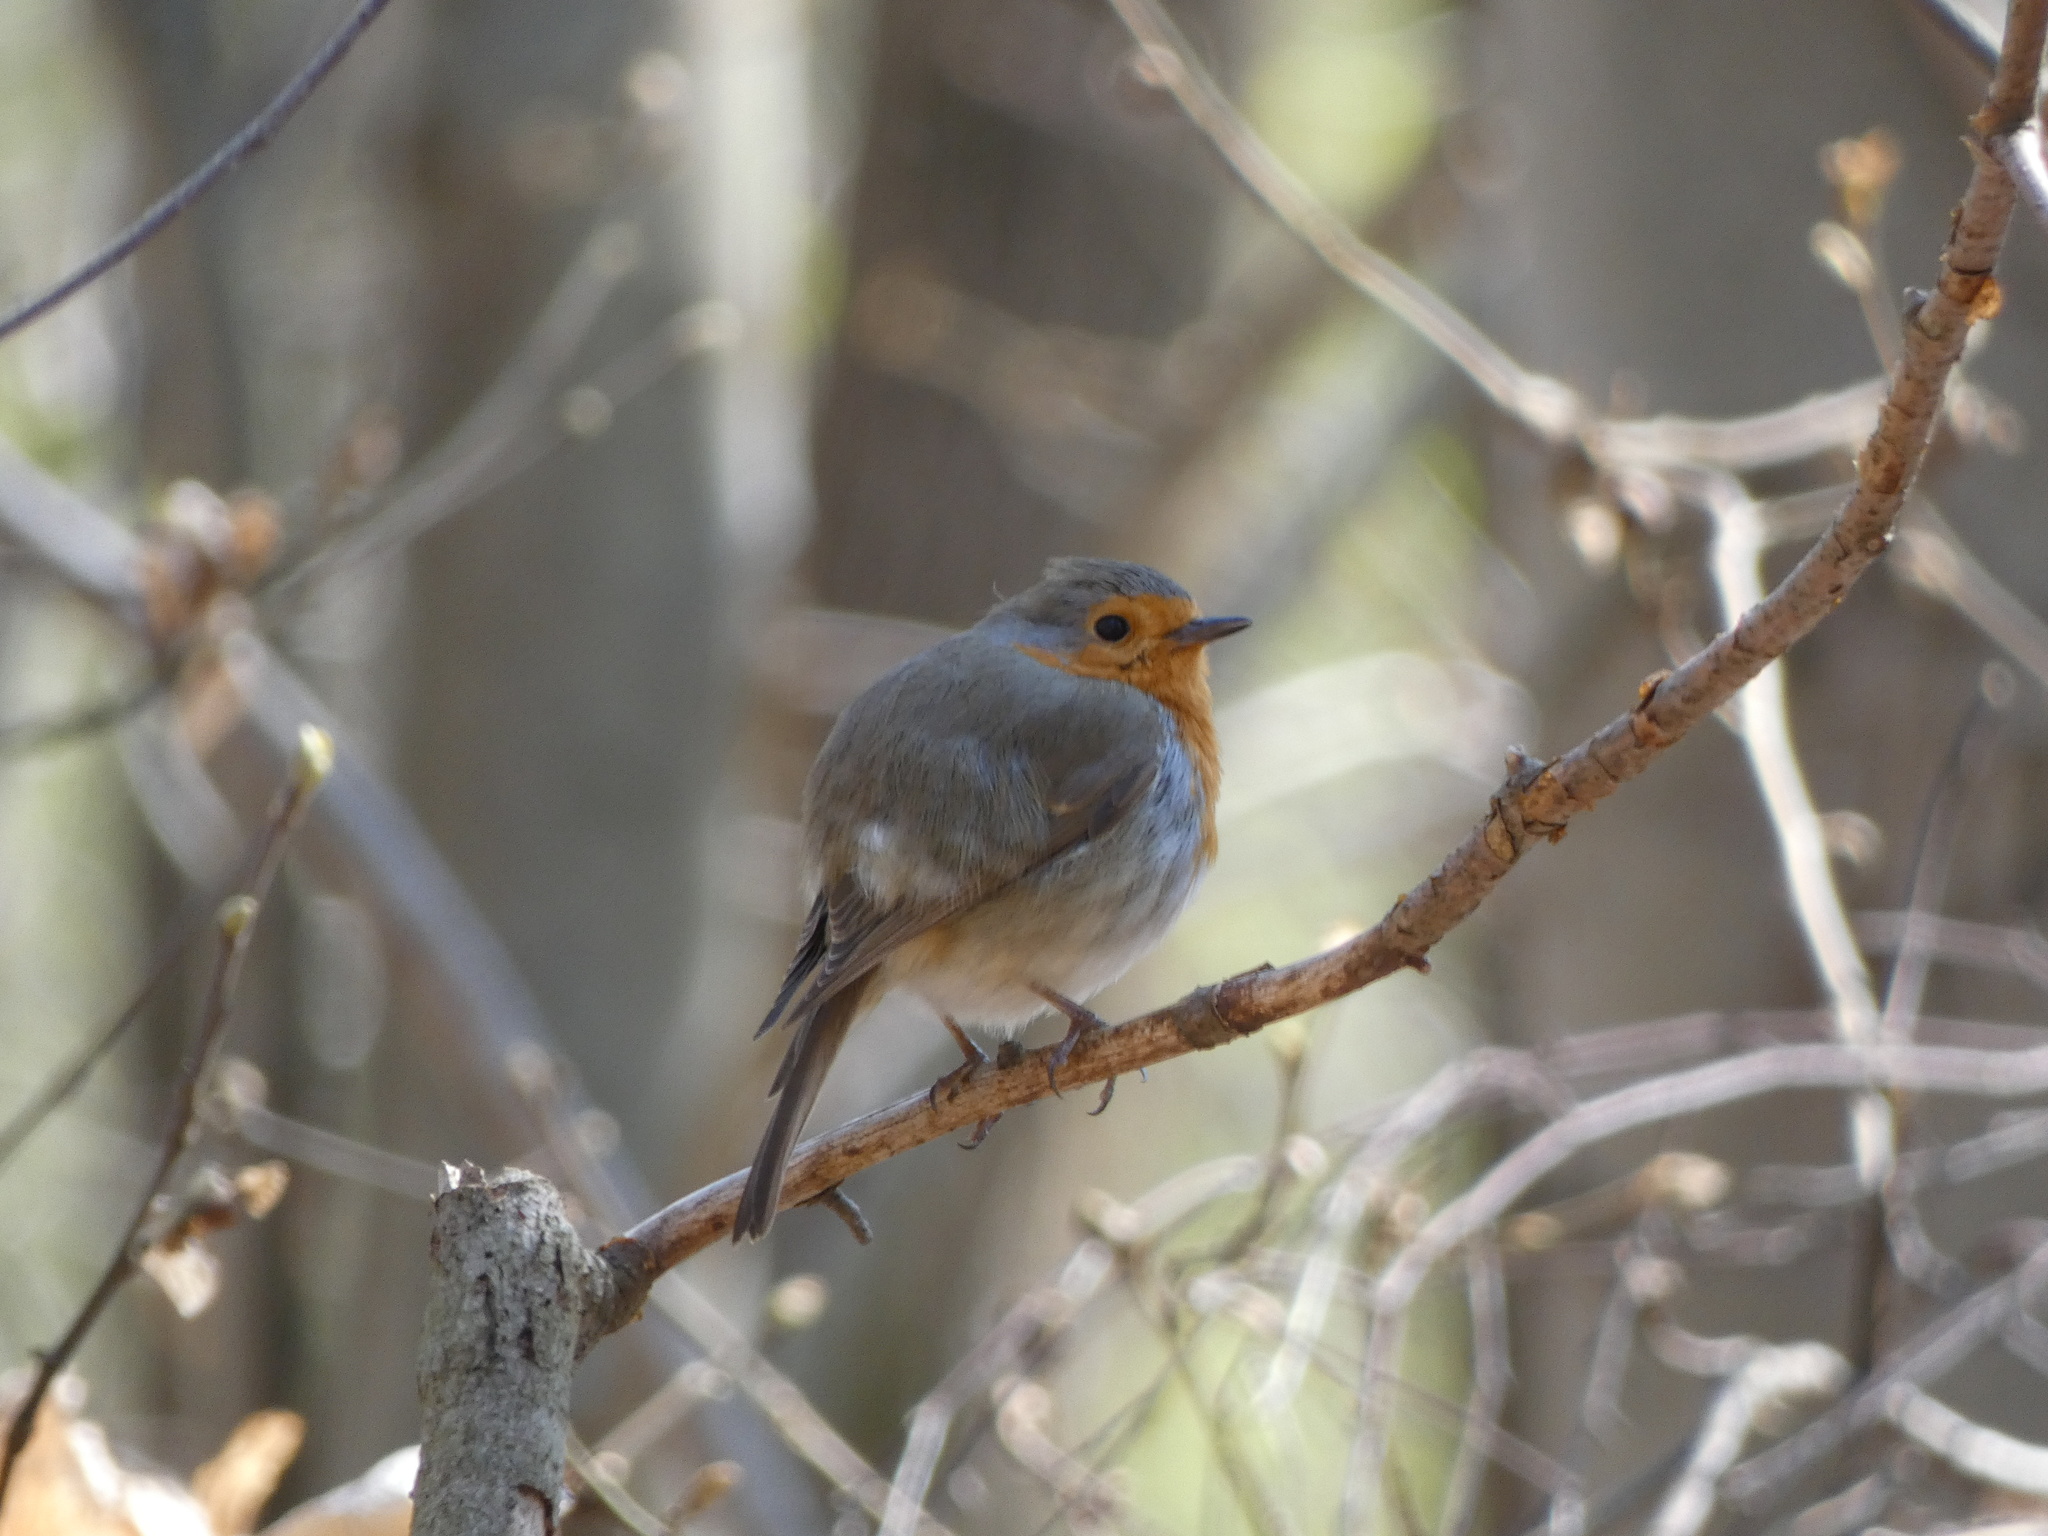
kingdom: Animalia
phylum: Chordata
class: Aves
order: Passeriformes
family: Muscicapidae
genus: Erithacus
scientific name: Erithacus rubecula
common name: European robin
